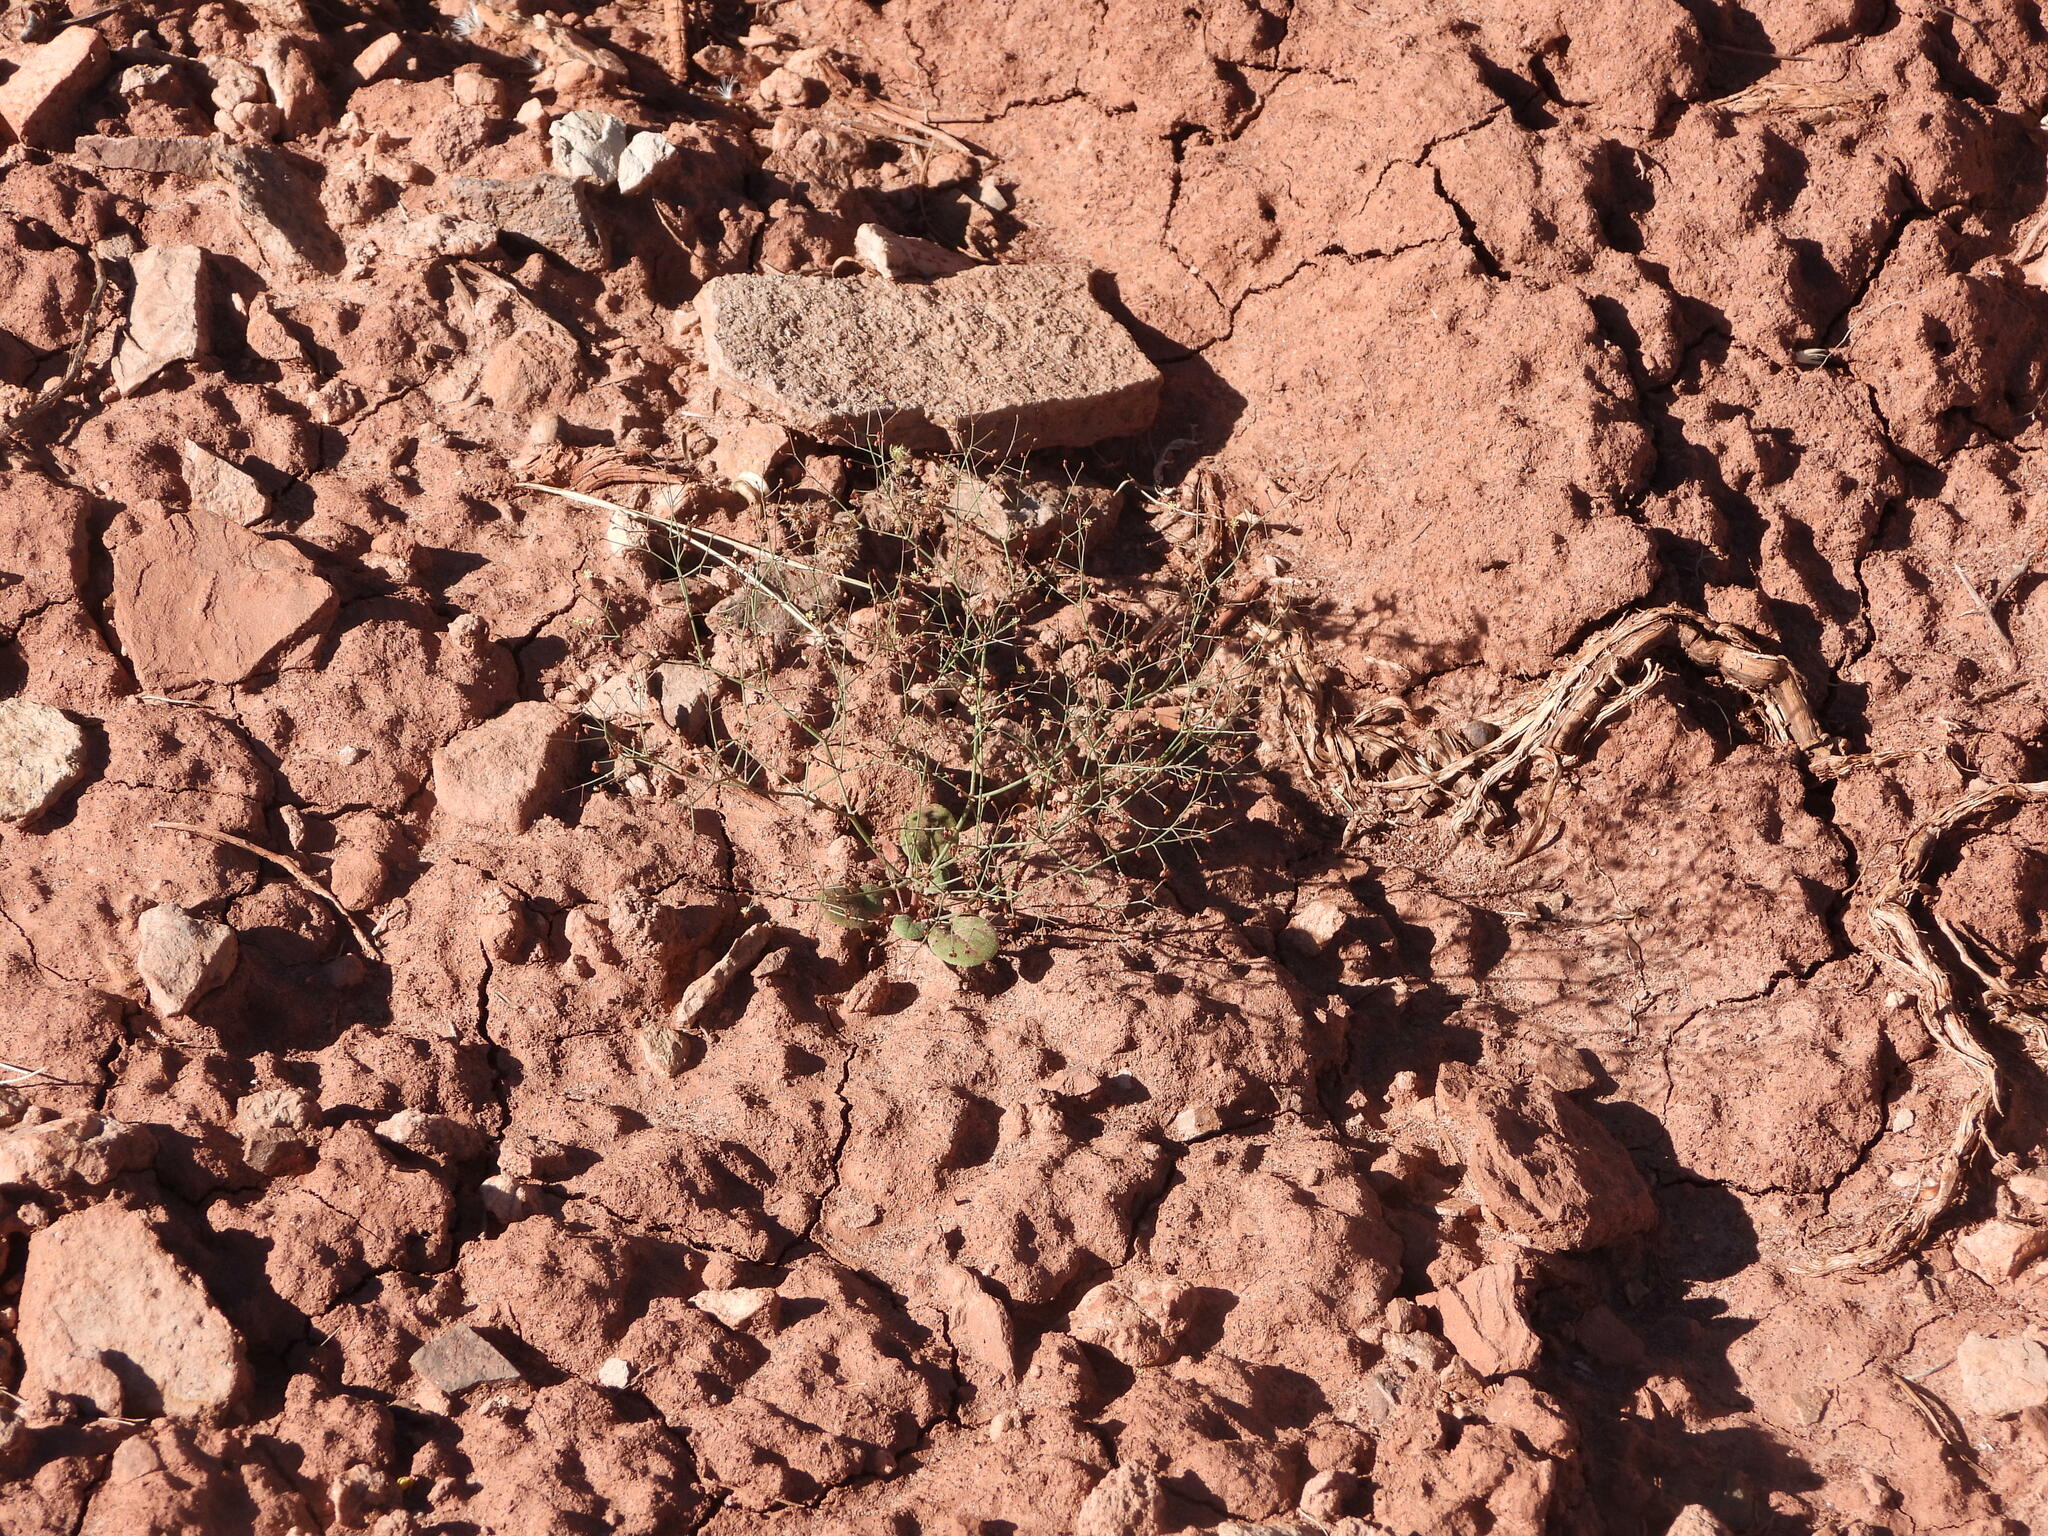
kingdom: Plantae
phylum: Tracheophyta
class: Magnoliopsida
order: Caryophyllales
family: Polygonaceae
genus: Eriogonum
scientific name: Eriogonum wetherillii
